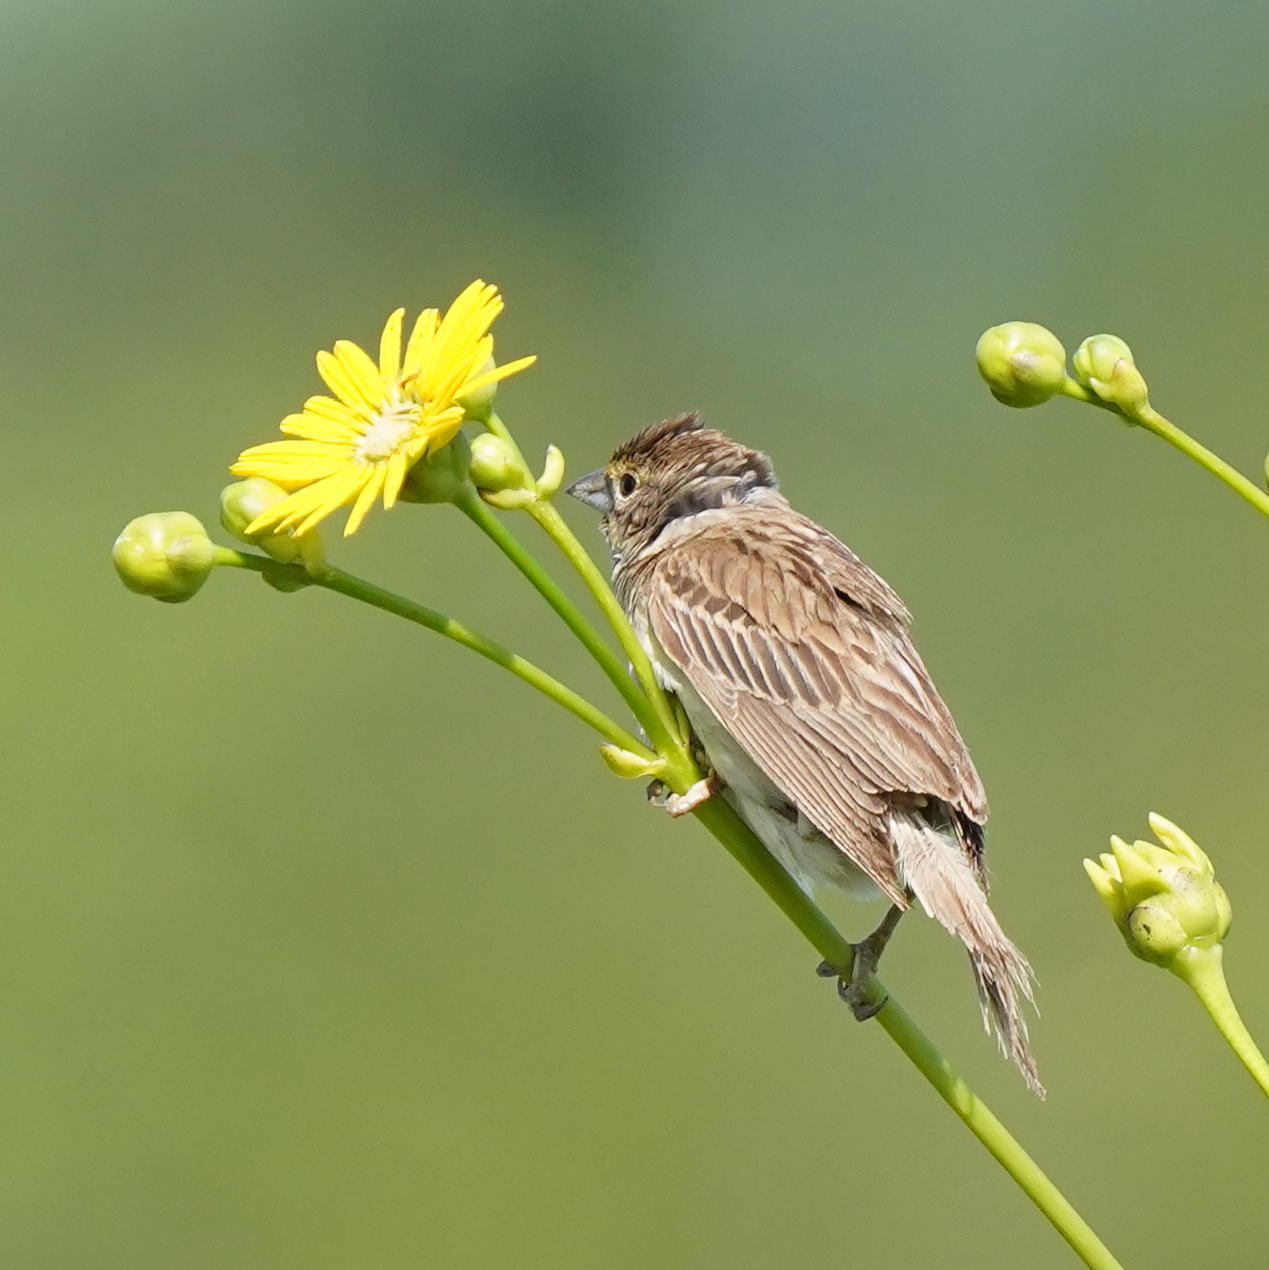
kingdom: Animalia
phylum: Chordata
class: Aves
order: Passeriformes
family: Cardinalidae
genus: Spiza
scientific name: Spiza americana
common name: Dickcissel
